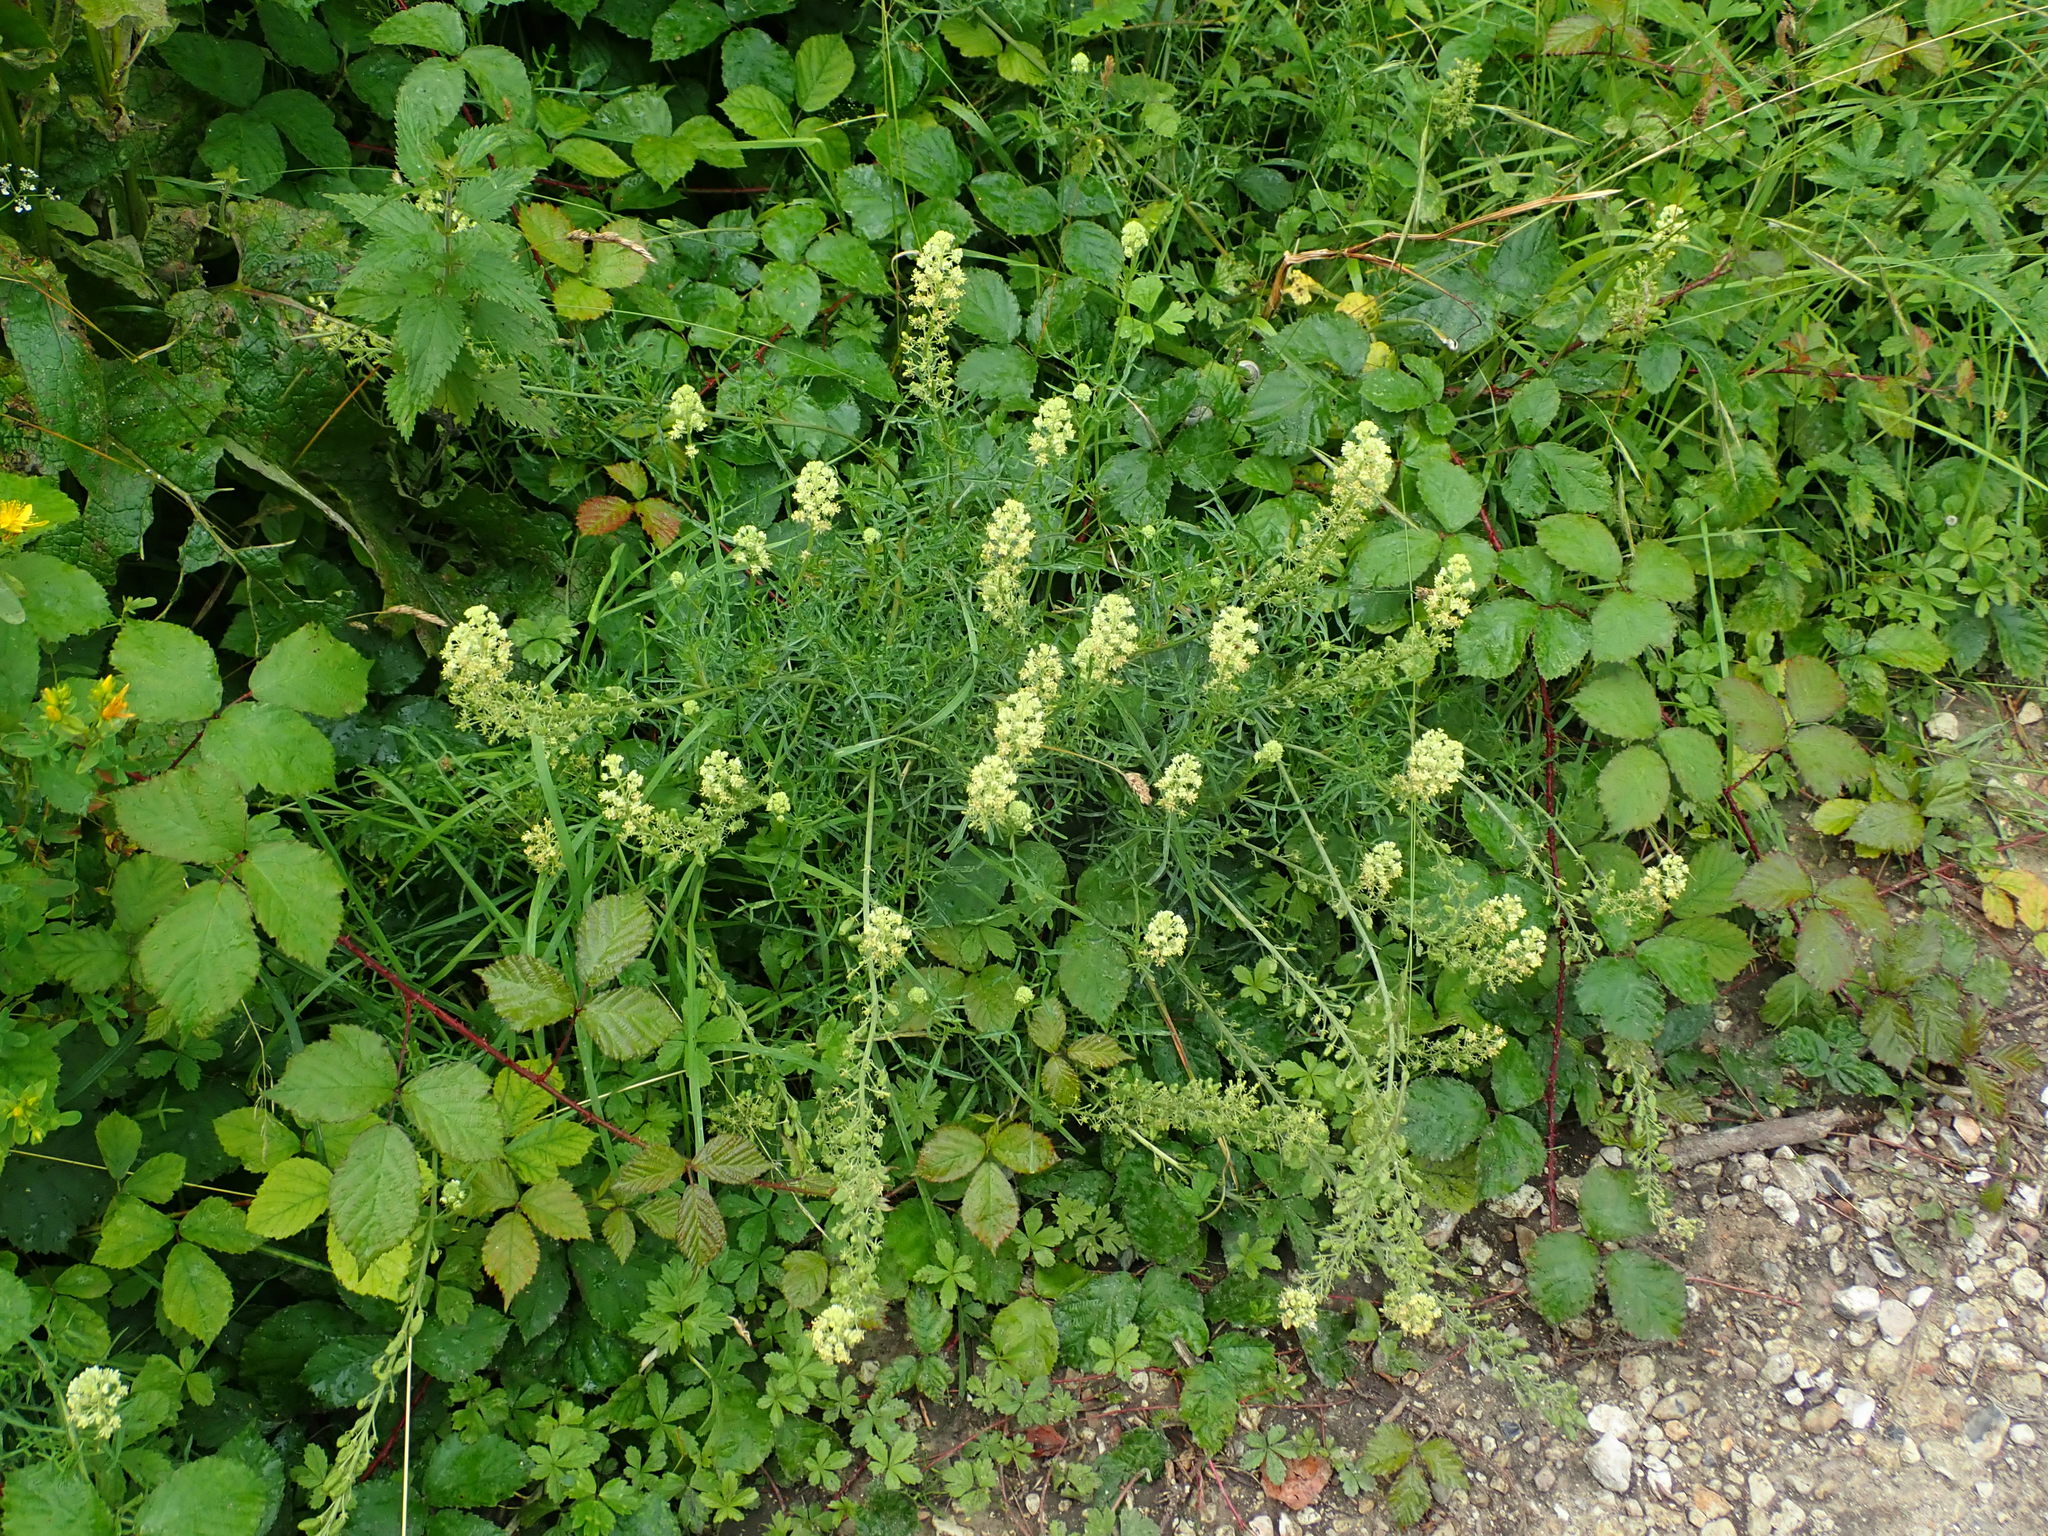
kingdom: Plantae
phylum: Tracheophyta
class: Magnoliopsida
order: Brassicales
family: Resedaceae
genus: Reseda
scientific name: Reseda lutea
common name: Wild mignonette
